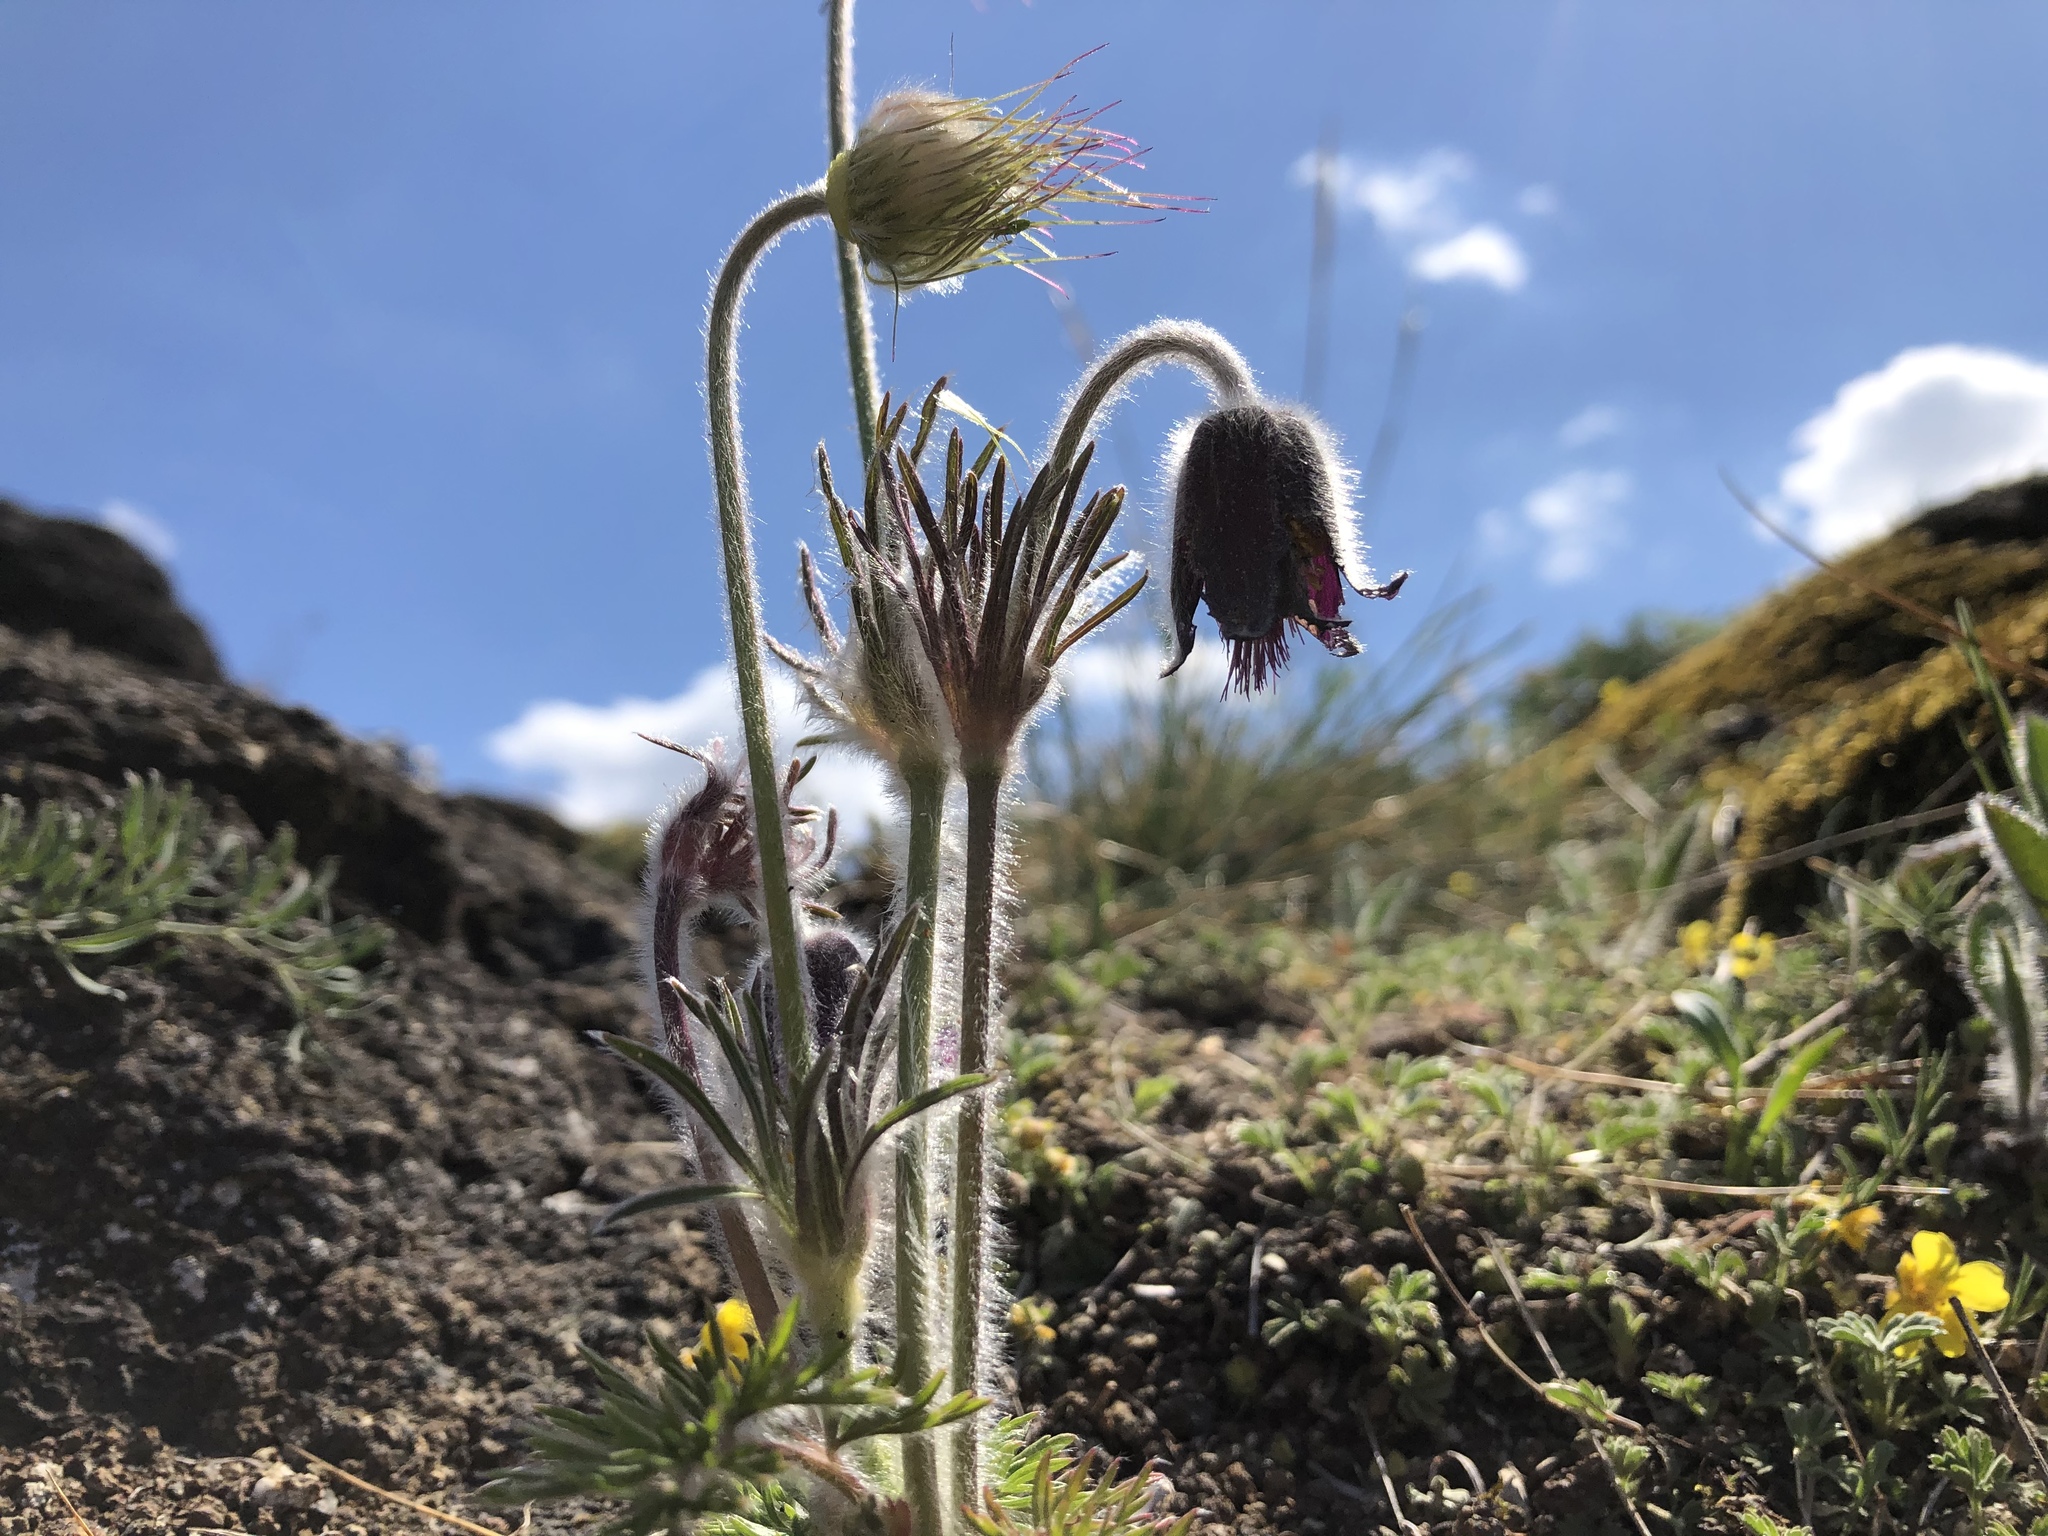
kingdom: Plantae
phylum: Tracheophyta
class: Magnoliopsida
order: Ranunculales
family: Ranunculaceae
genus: Pulsatilla
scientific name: Pulsatilla pratensis
